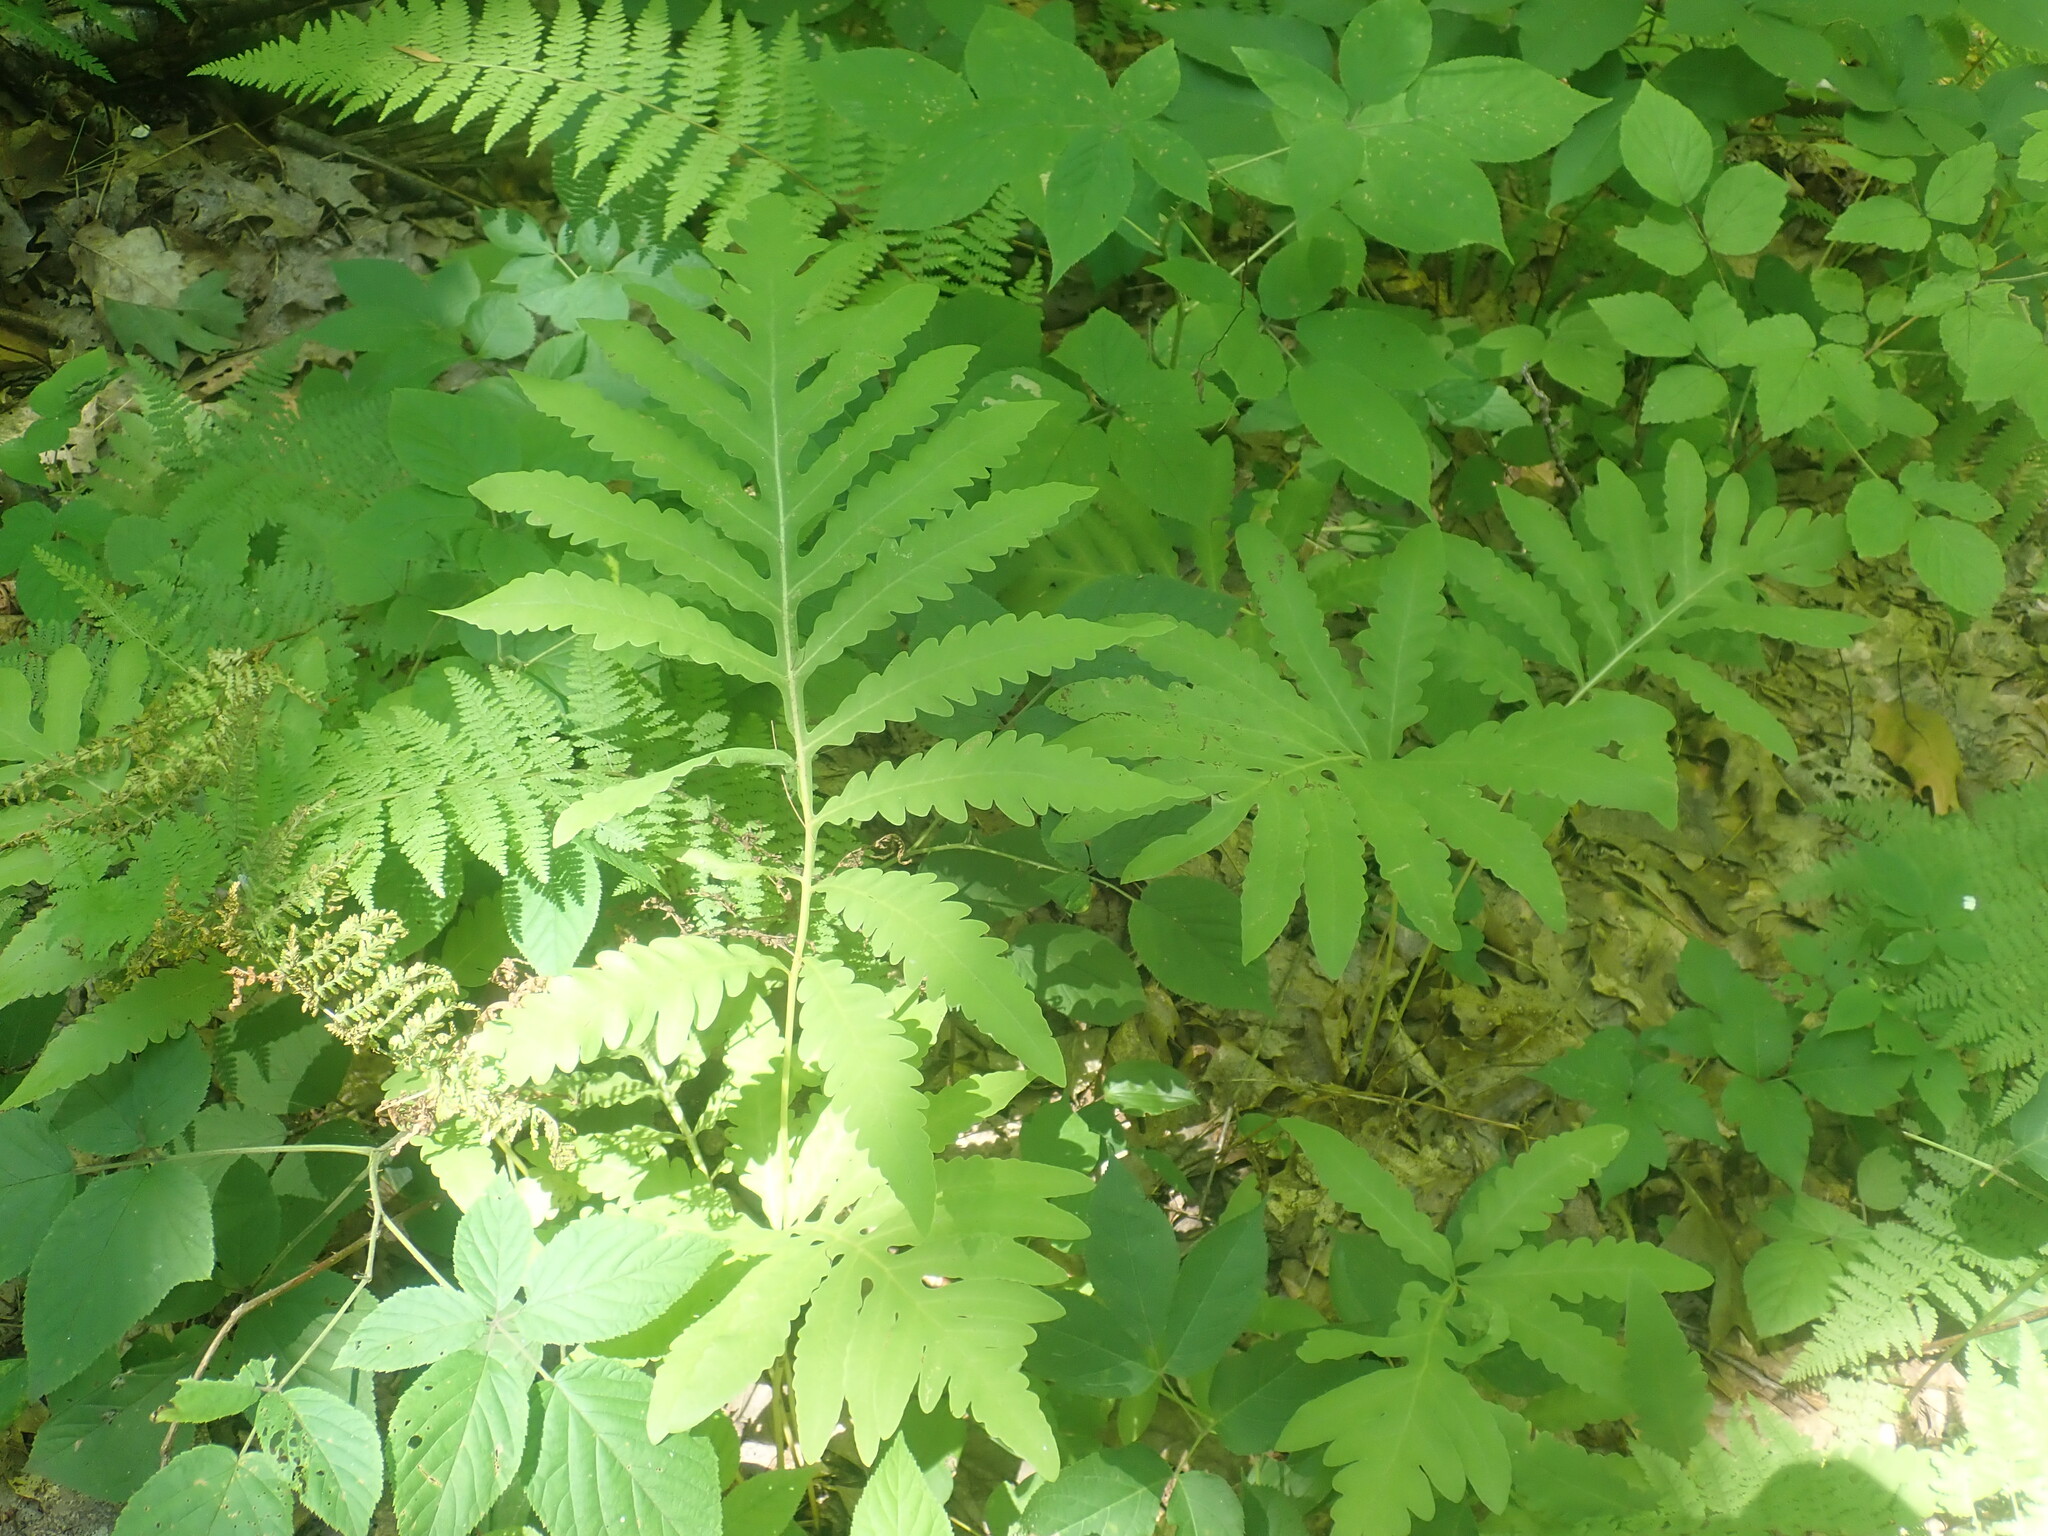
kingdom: Plantae
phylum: Tracheophyta
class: Polypodiopsida
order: Polypodiales
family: Onocleaceae
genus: Onoclea
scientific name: Onoclea sensibilis
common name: Sensitive fern
